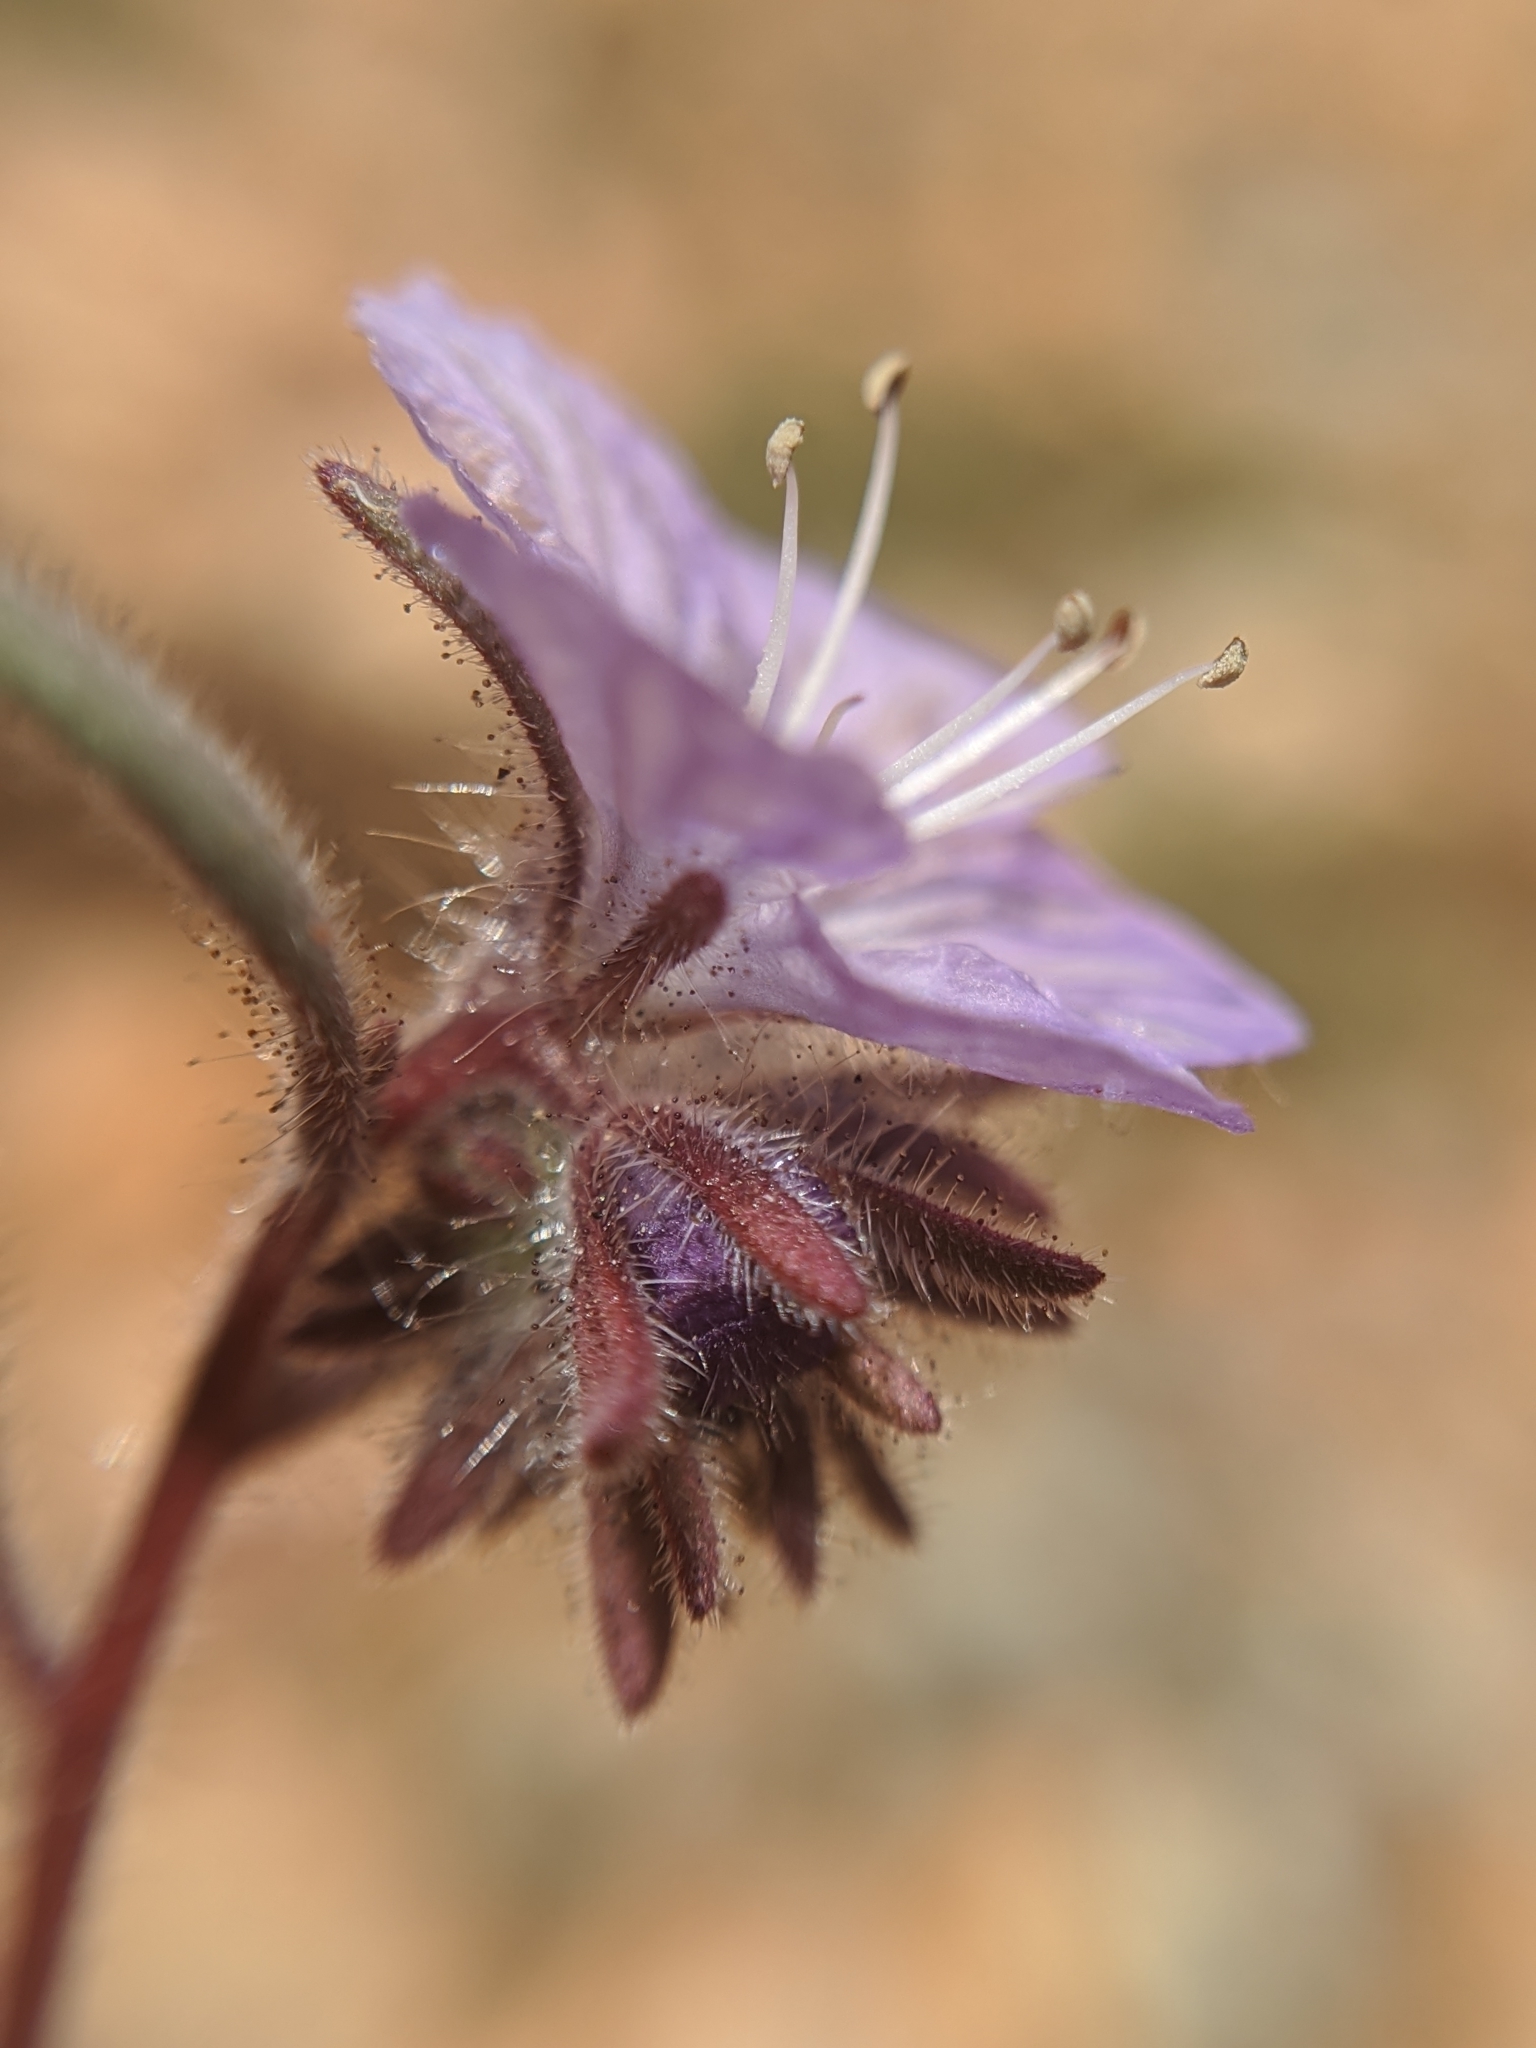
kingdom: Plantae
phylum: Tracheophyta
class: Magnoliopsida
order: Boraginales
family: Hydrophyllaceae
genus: Phacelia
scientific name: Phacelia exilis
